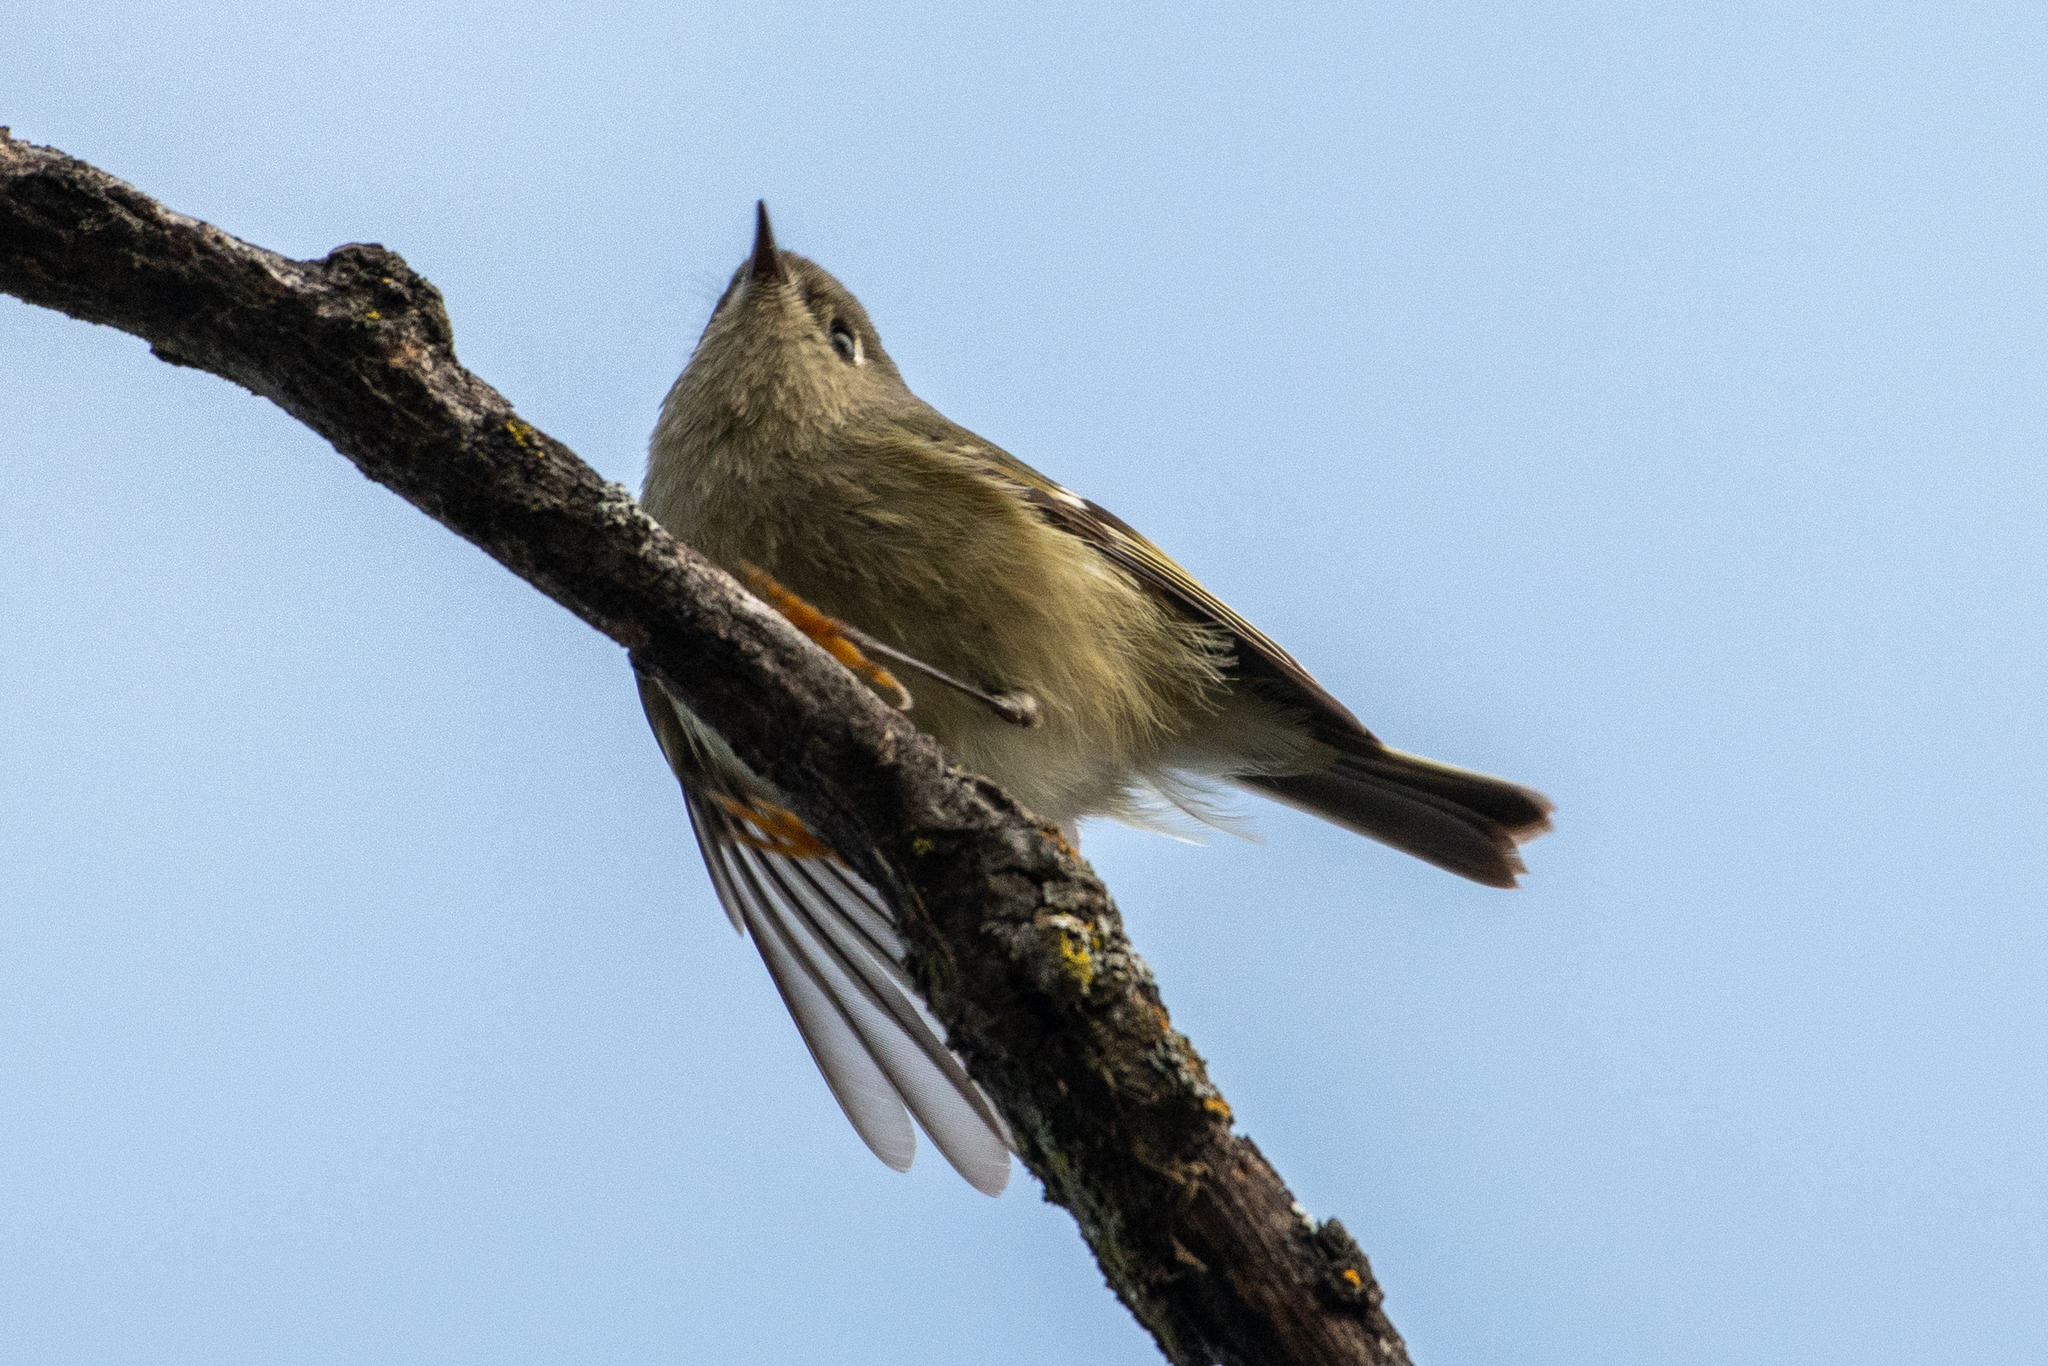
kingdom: Animalia
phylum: Chordata
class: Aves
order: Passeriformes
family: Regulidae
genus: Regulus
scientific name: Regulus calendula
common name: Ruby-crowned kinglet
